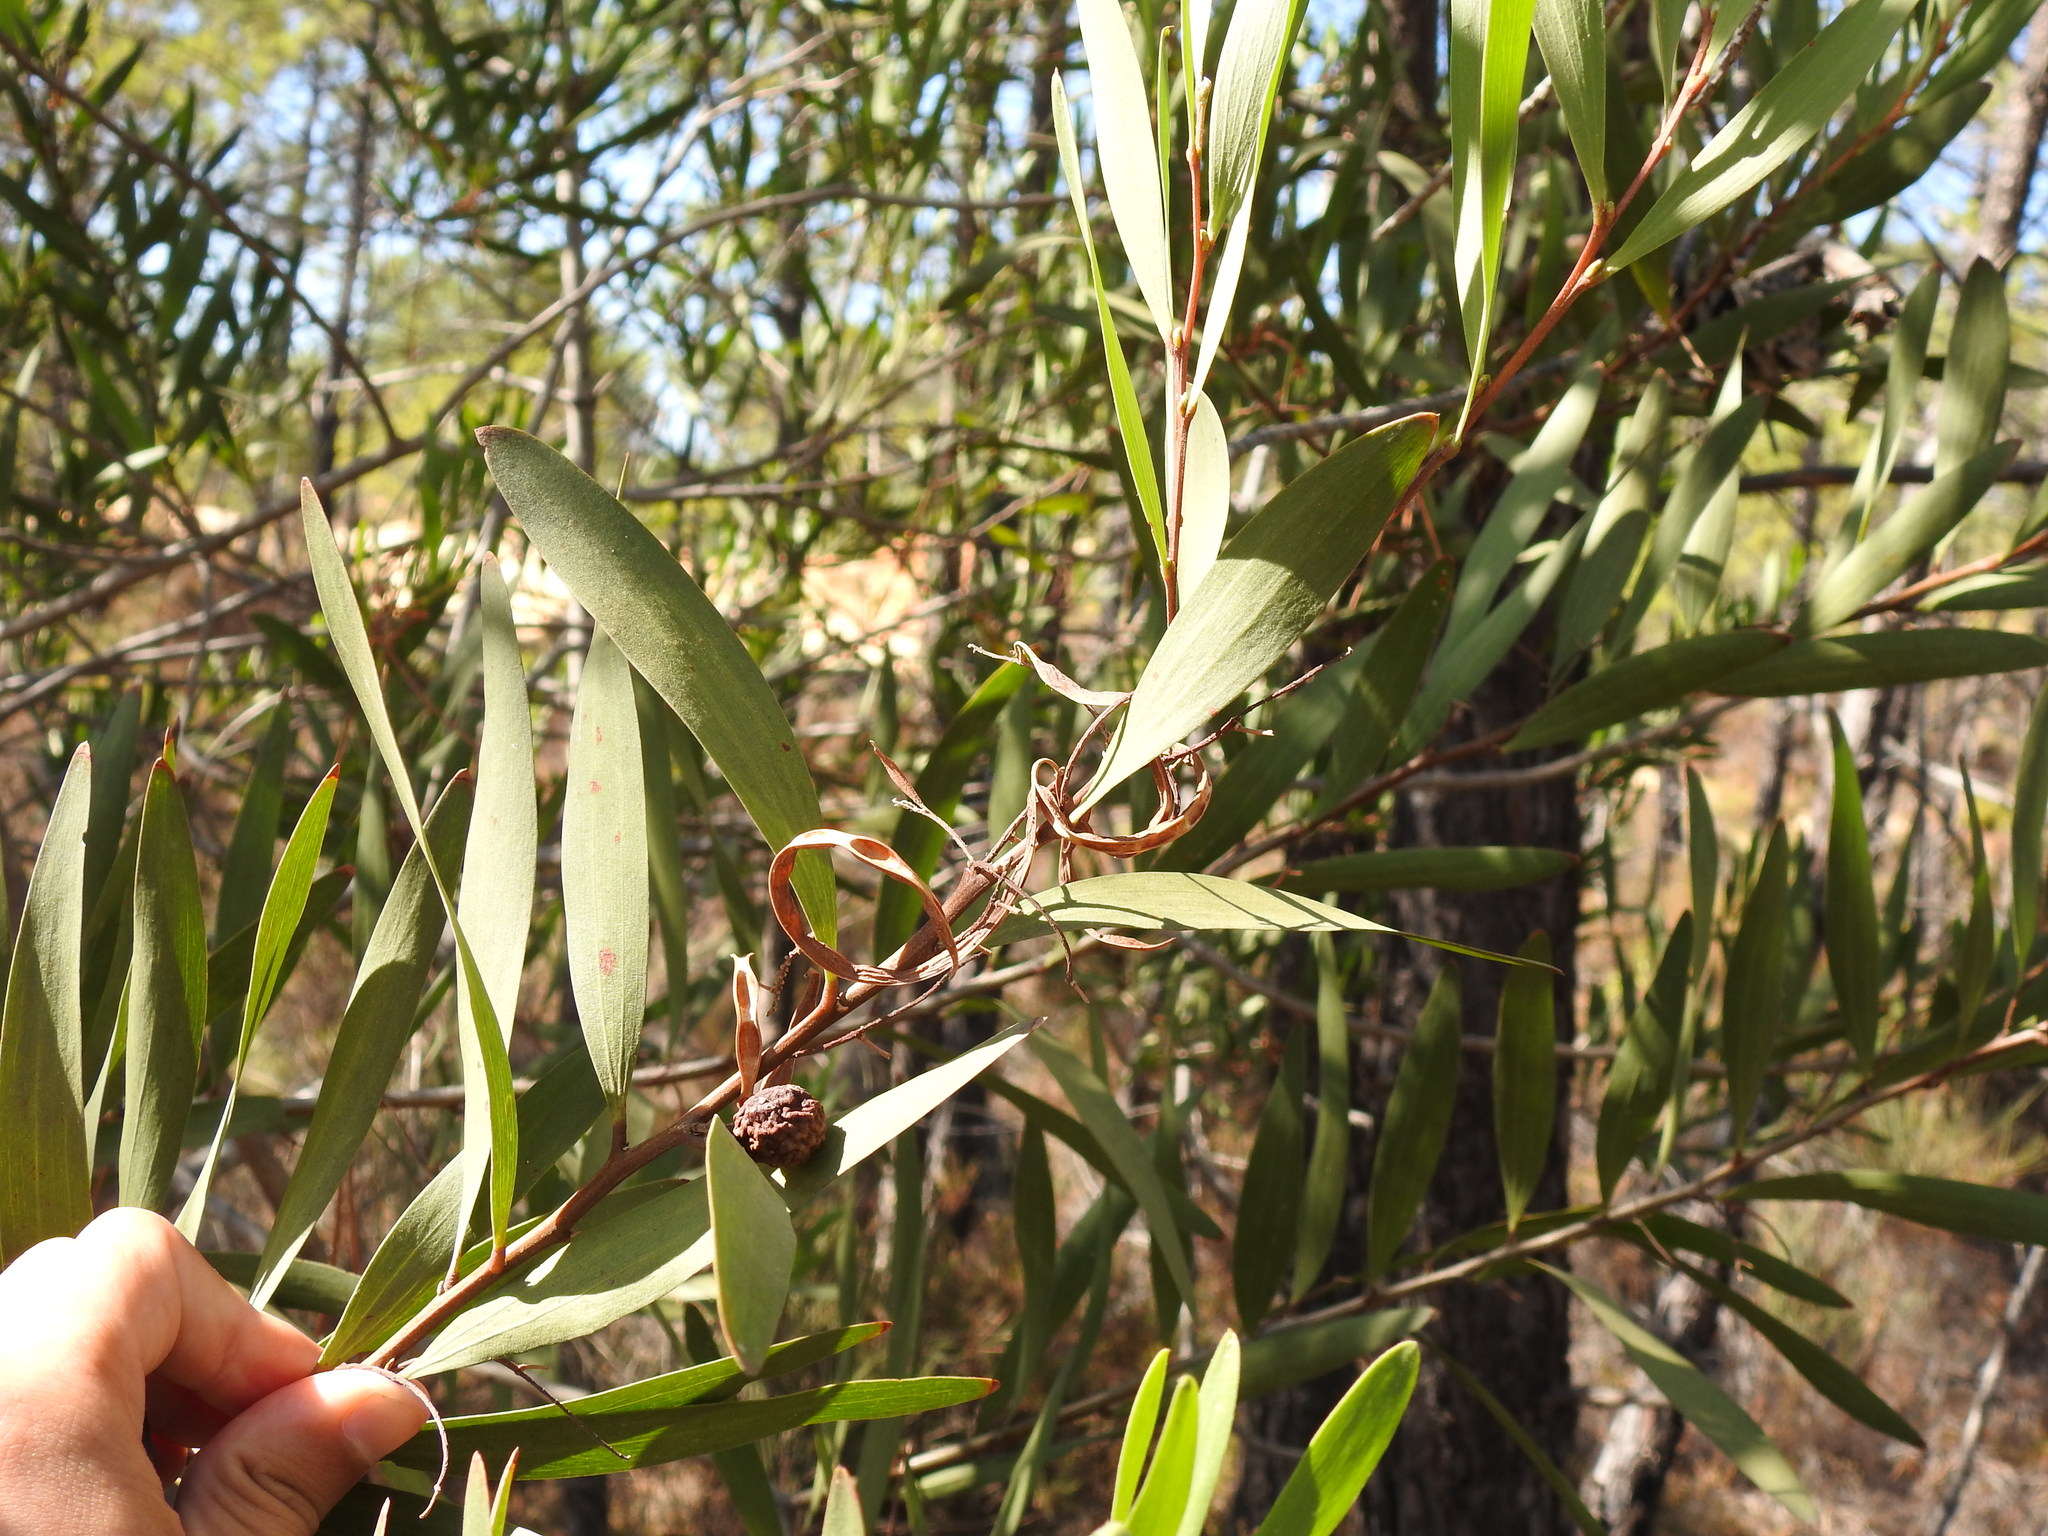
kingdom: Plantae
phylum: Tracheophyta
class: Magnoliopsida
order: Fabales
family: Fabaceae
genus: Acacia
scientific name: Acacia longifolia
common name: Sydney golden wattle
